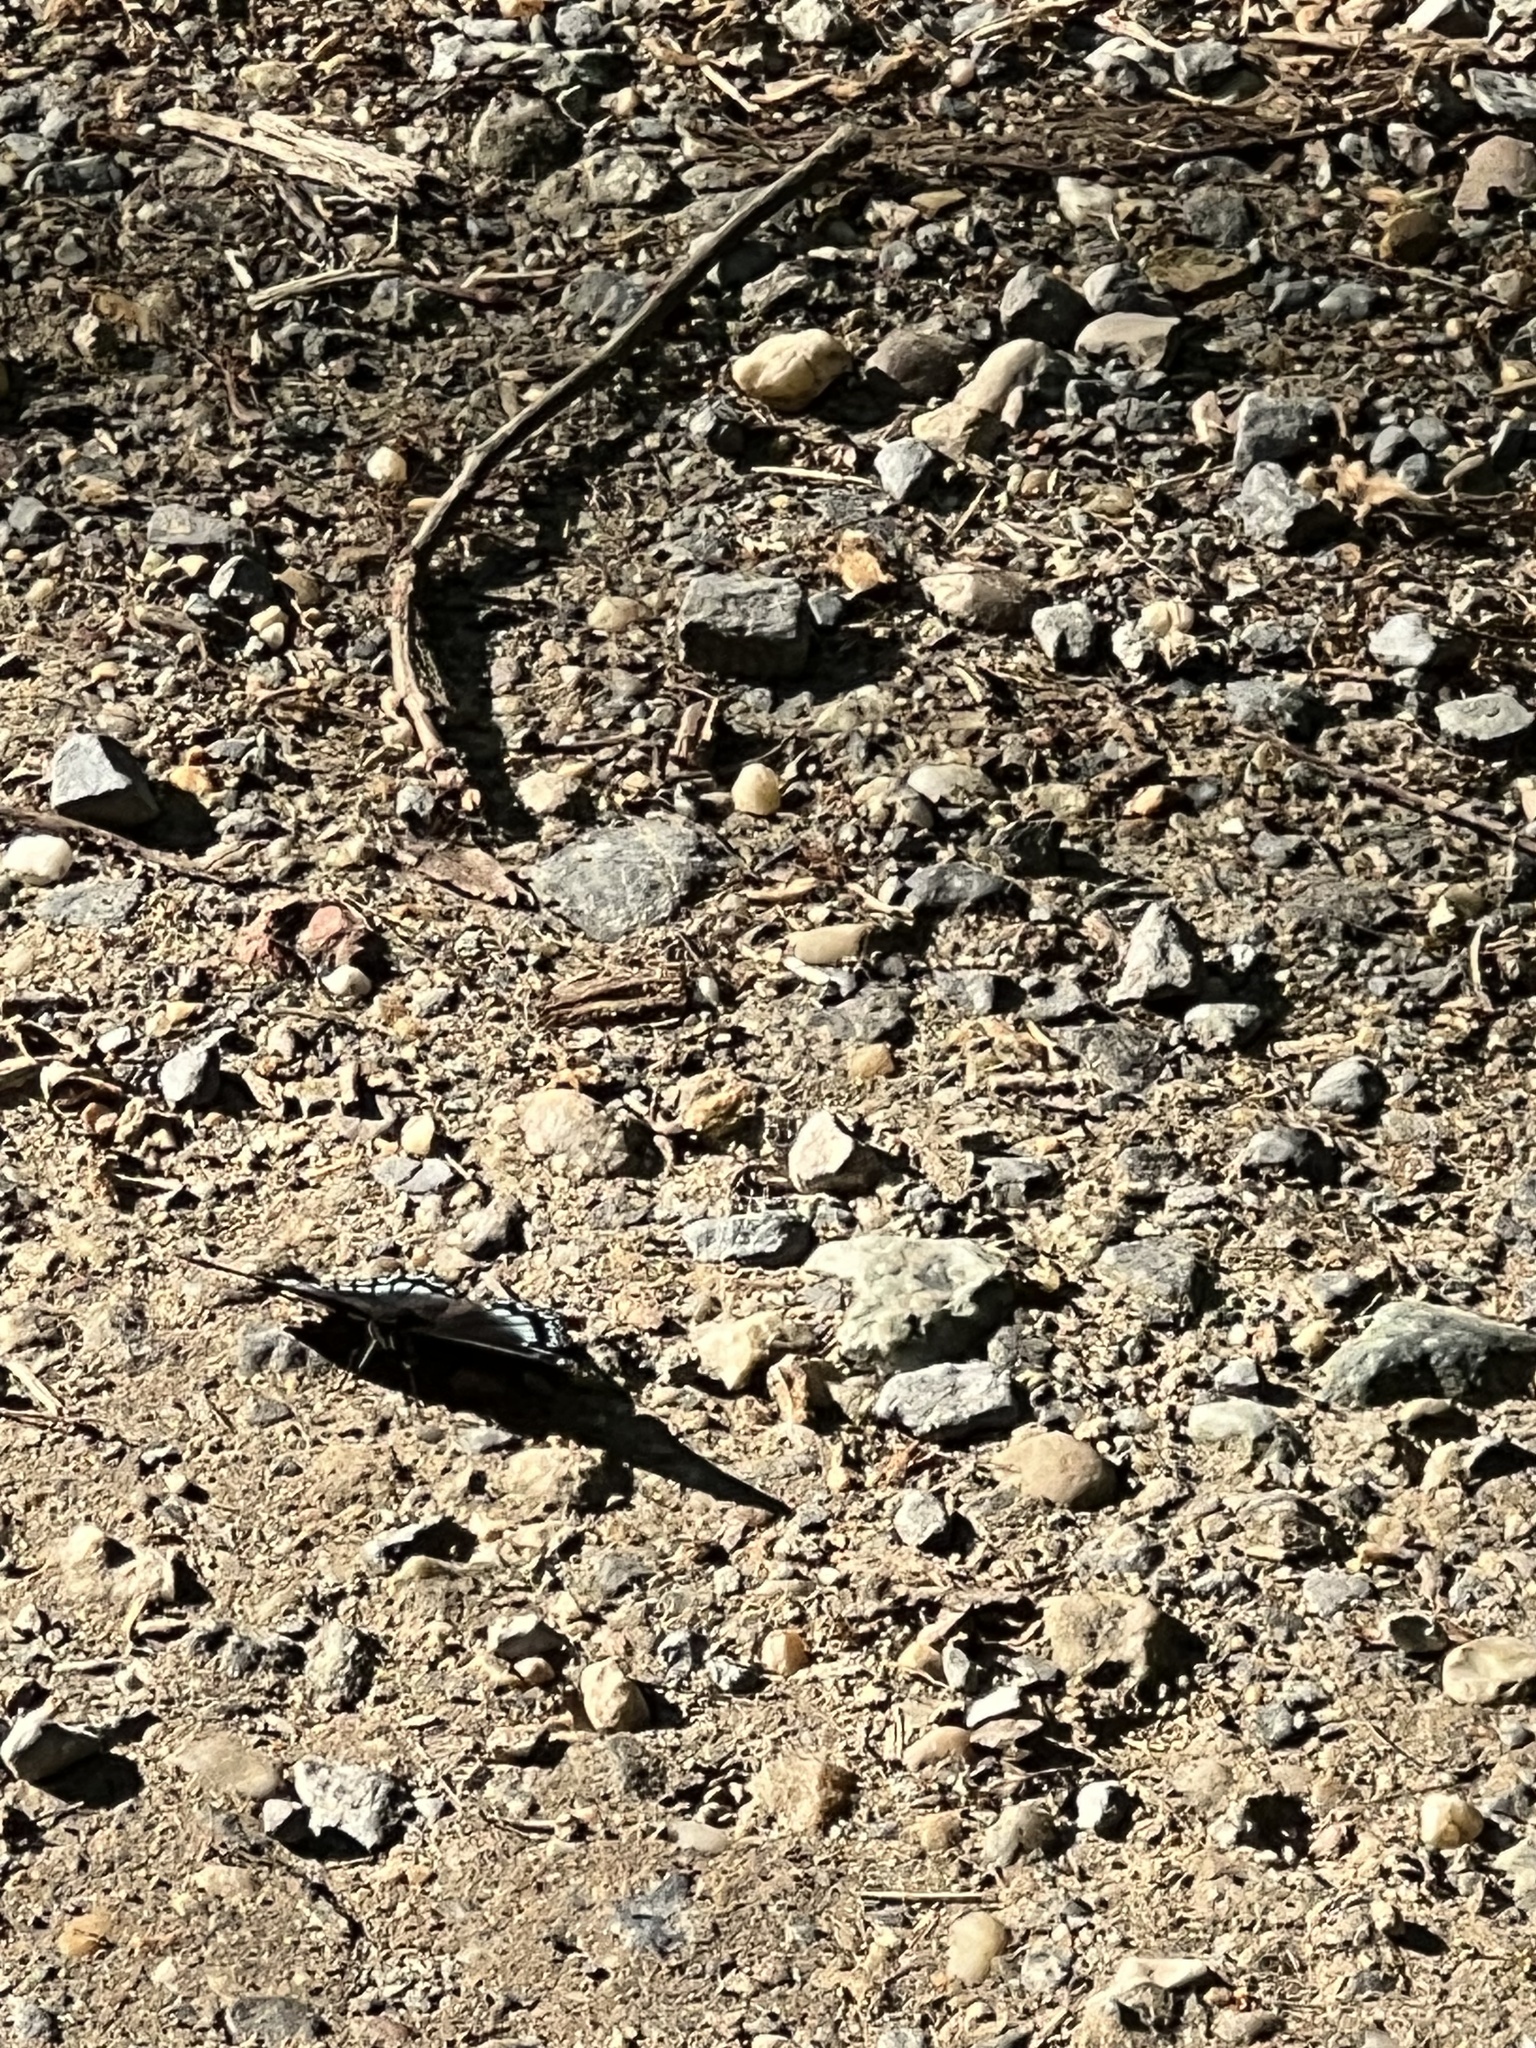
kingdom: Animalia
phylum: Arthropoda
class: Insecta
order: Lepidoptera
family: Nymphalidae
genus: Limenitis
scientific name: Limenitis astyanax
